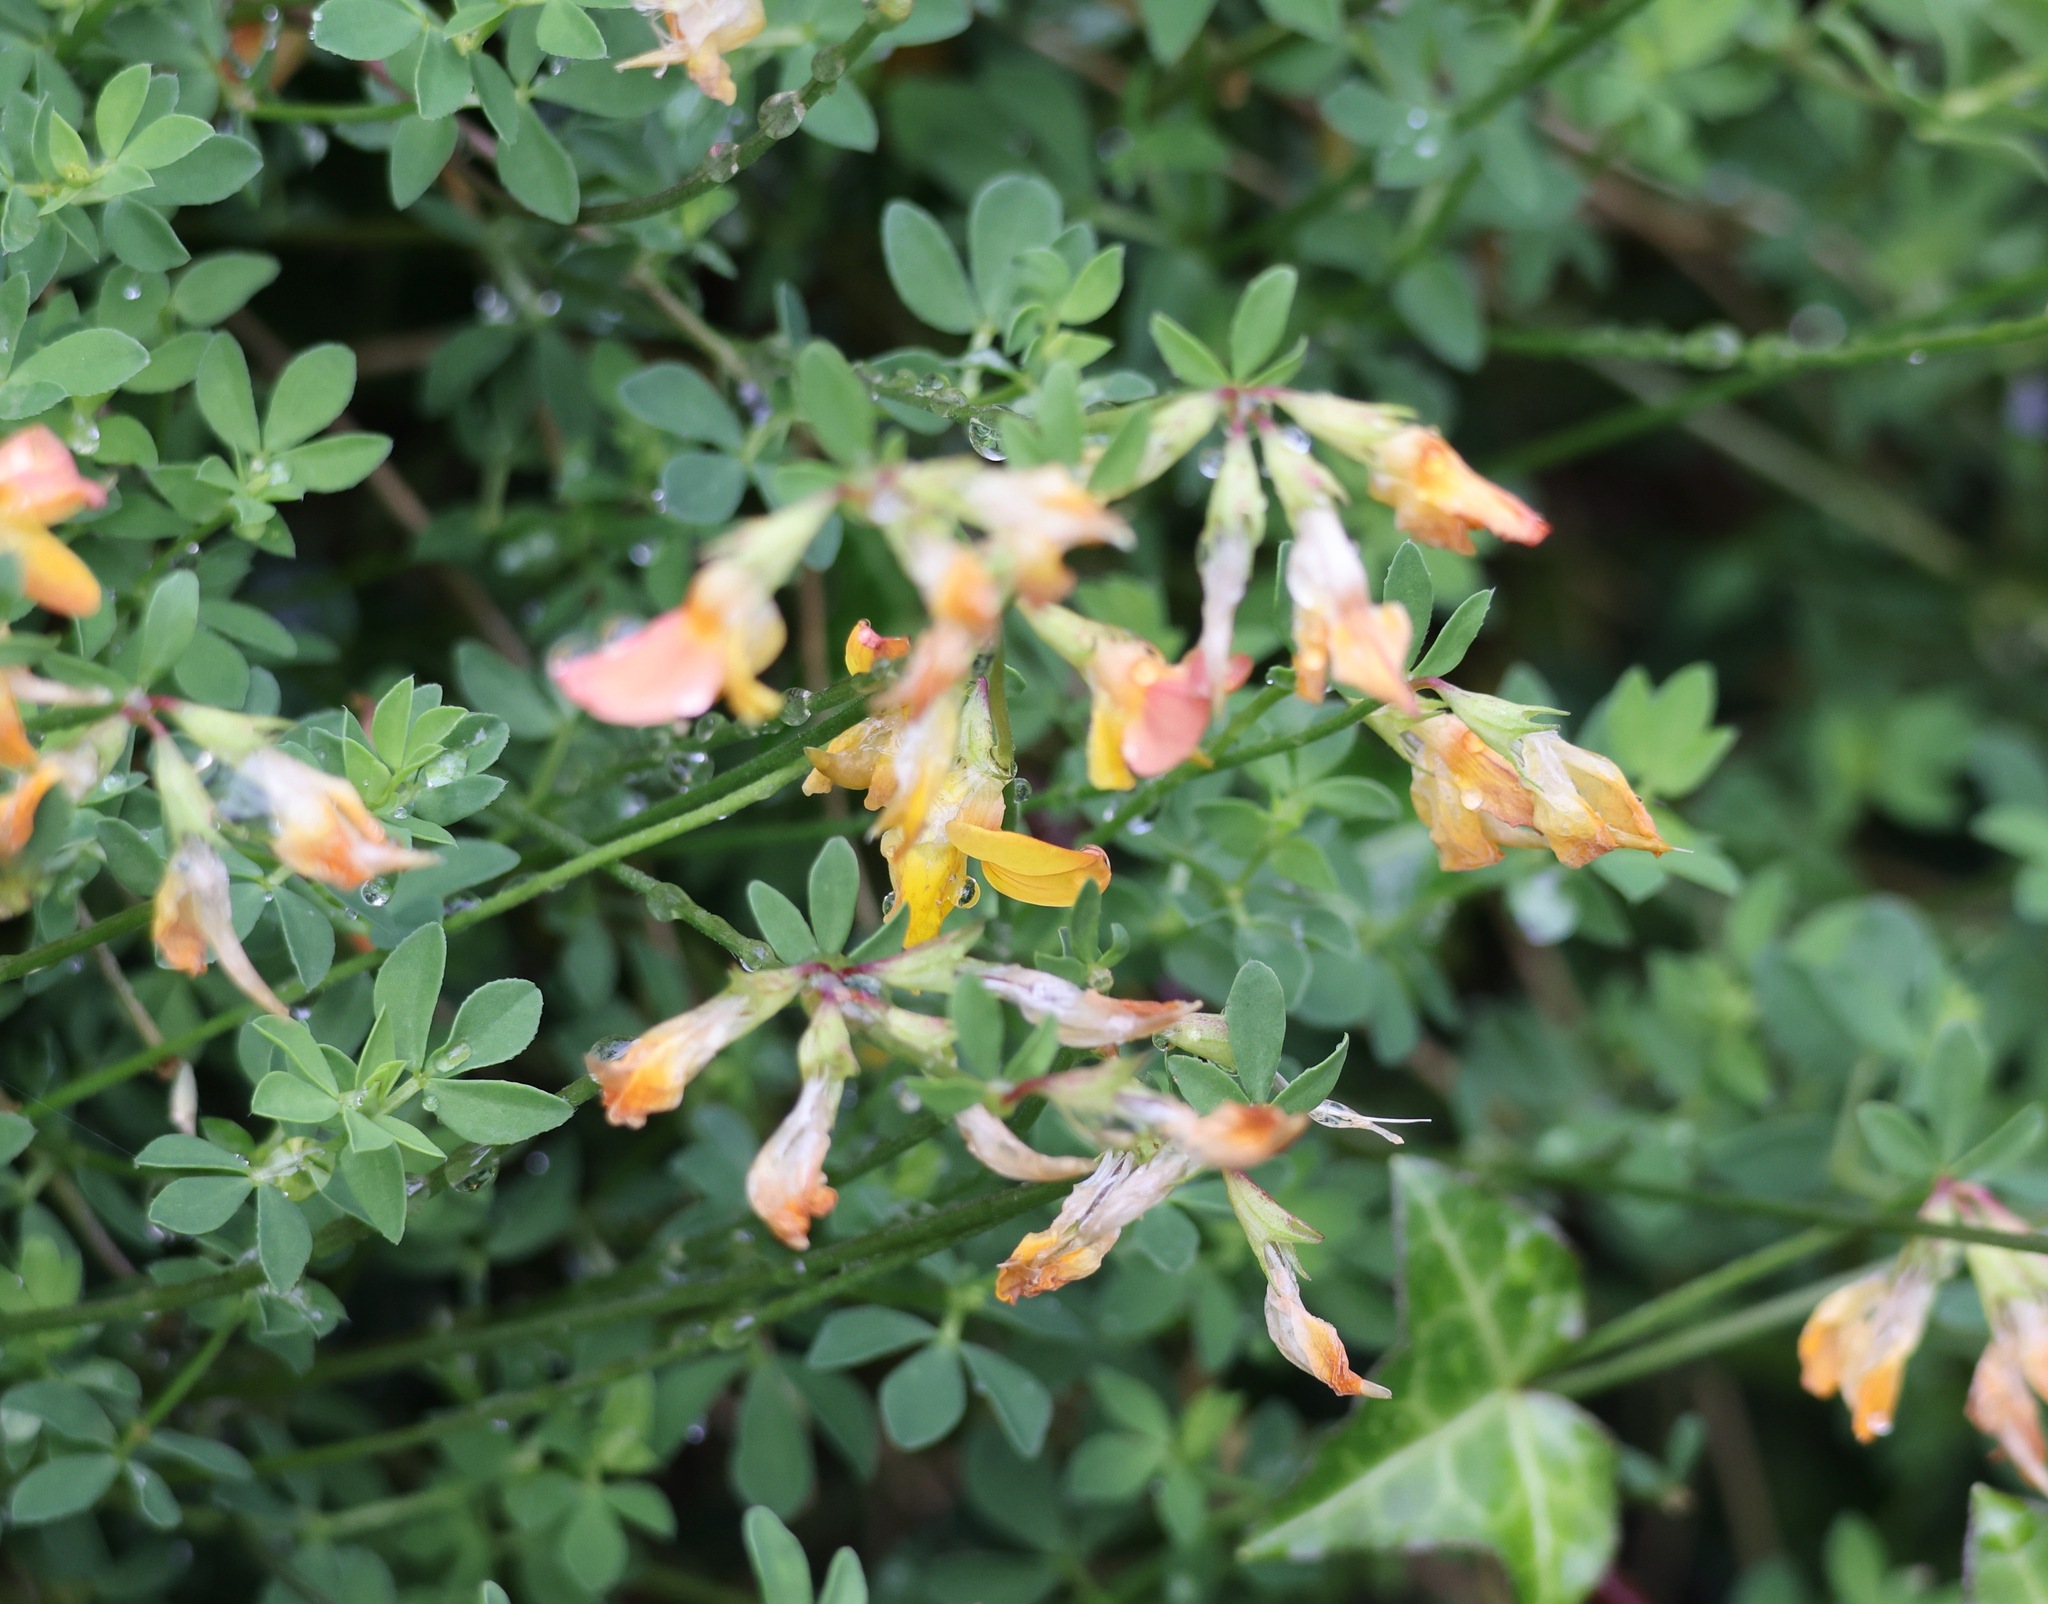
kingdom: Plantae
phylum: Tracheophyta
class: Magnoliopsida
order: Fabales
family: Fabaceae
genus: Lotus
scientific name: Lotus corniculatus
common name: Common bird's-foot-trefoil
